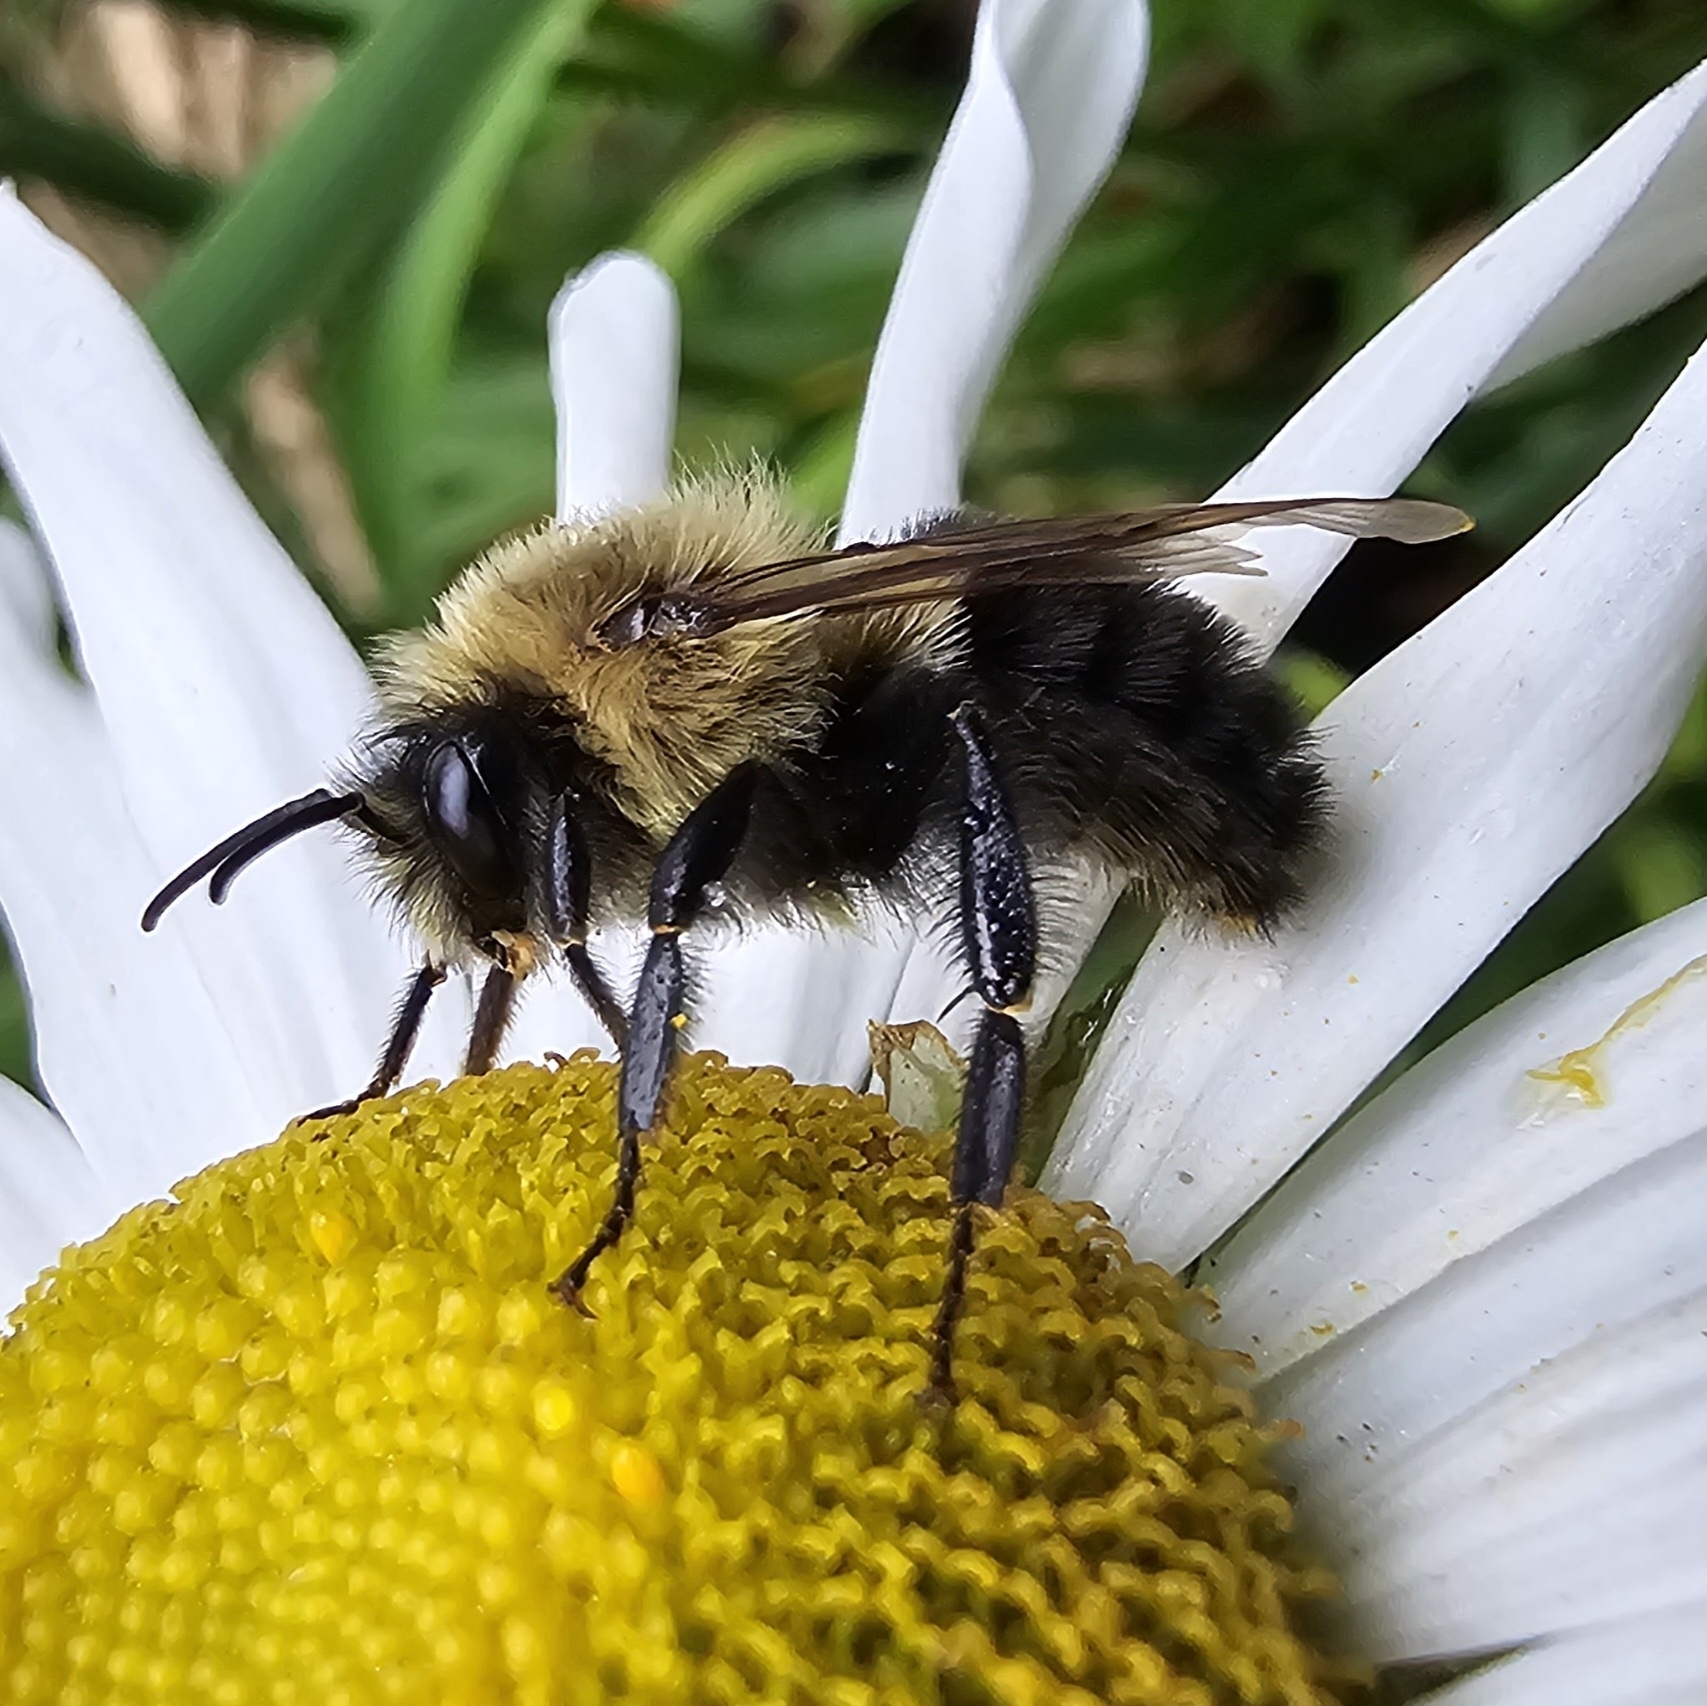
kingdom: Animalia
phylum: Arthropoda
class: Insecta
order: Hymenoptera
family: Apidae
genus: Bombus
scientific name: Bombus impatiens
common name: Common eastern bumble bee
